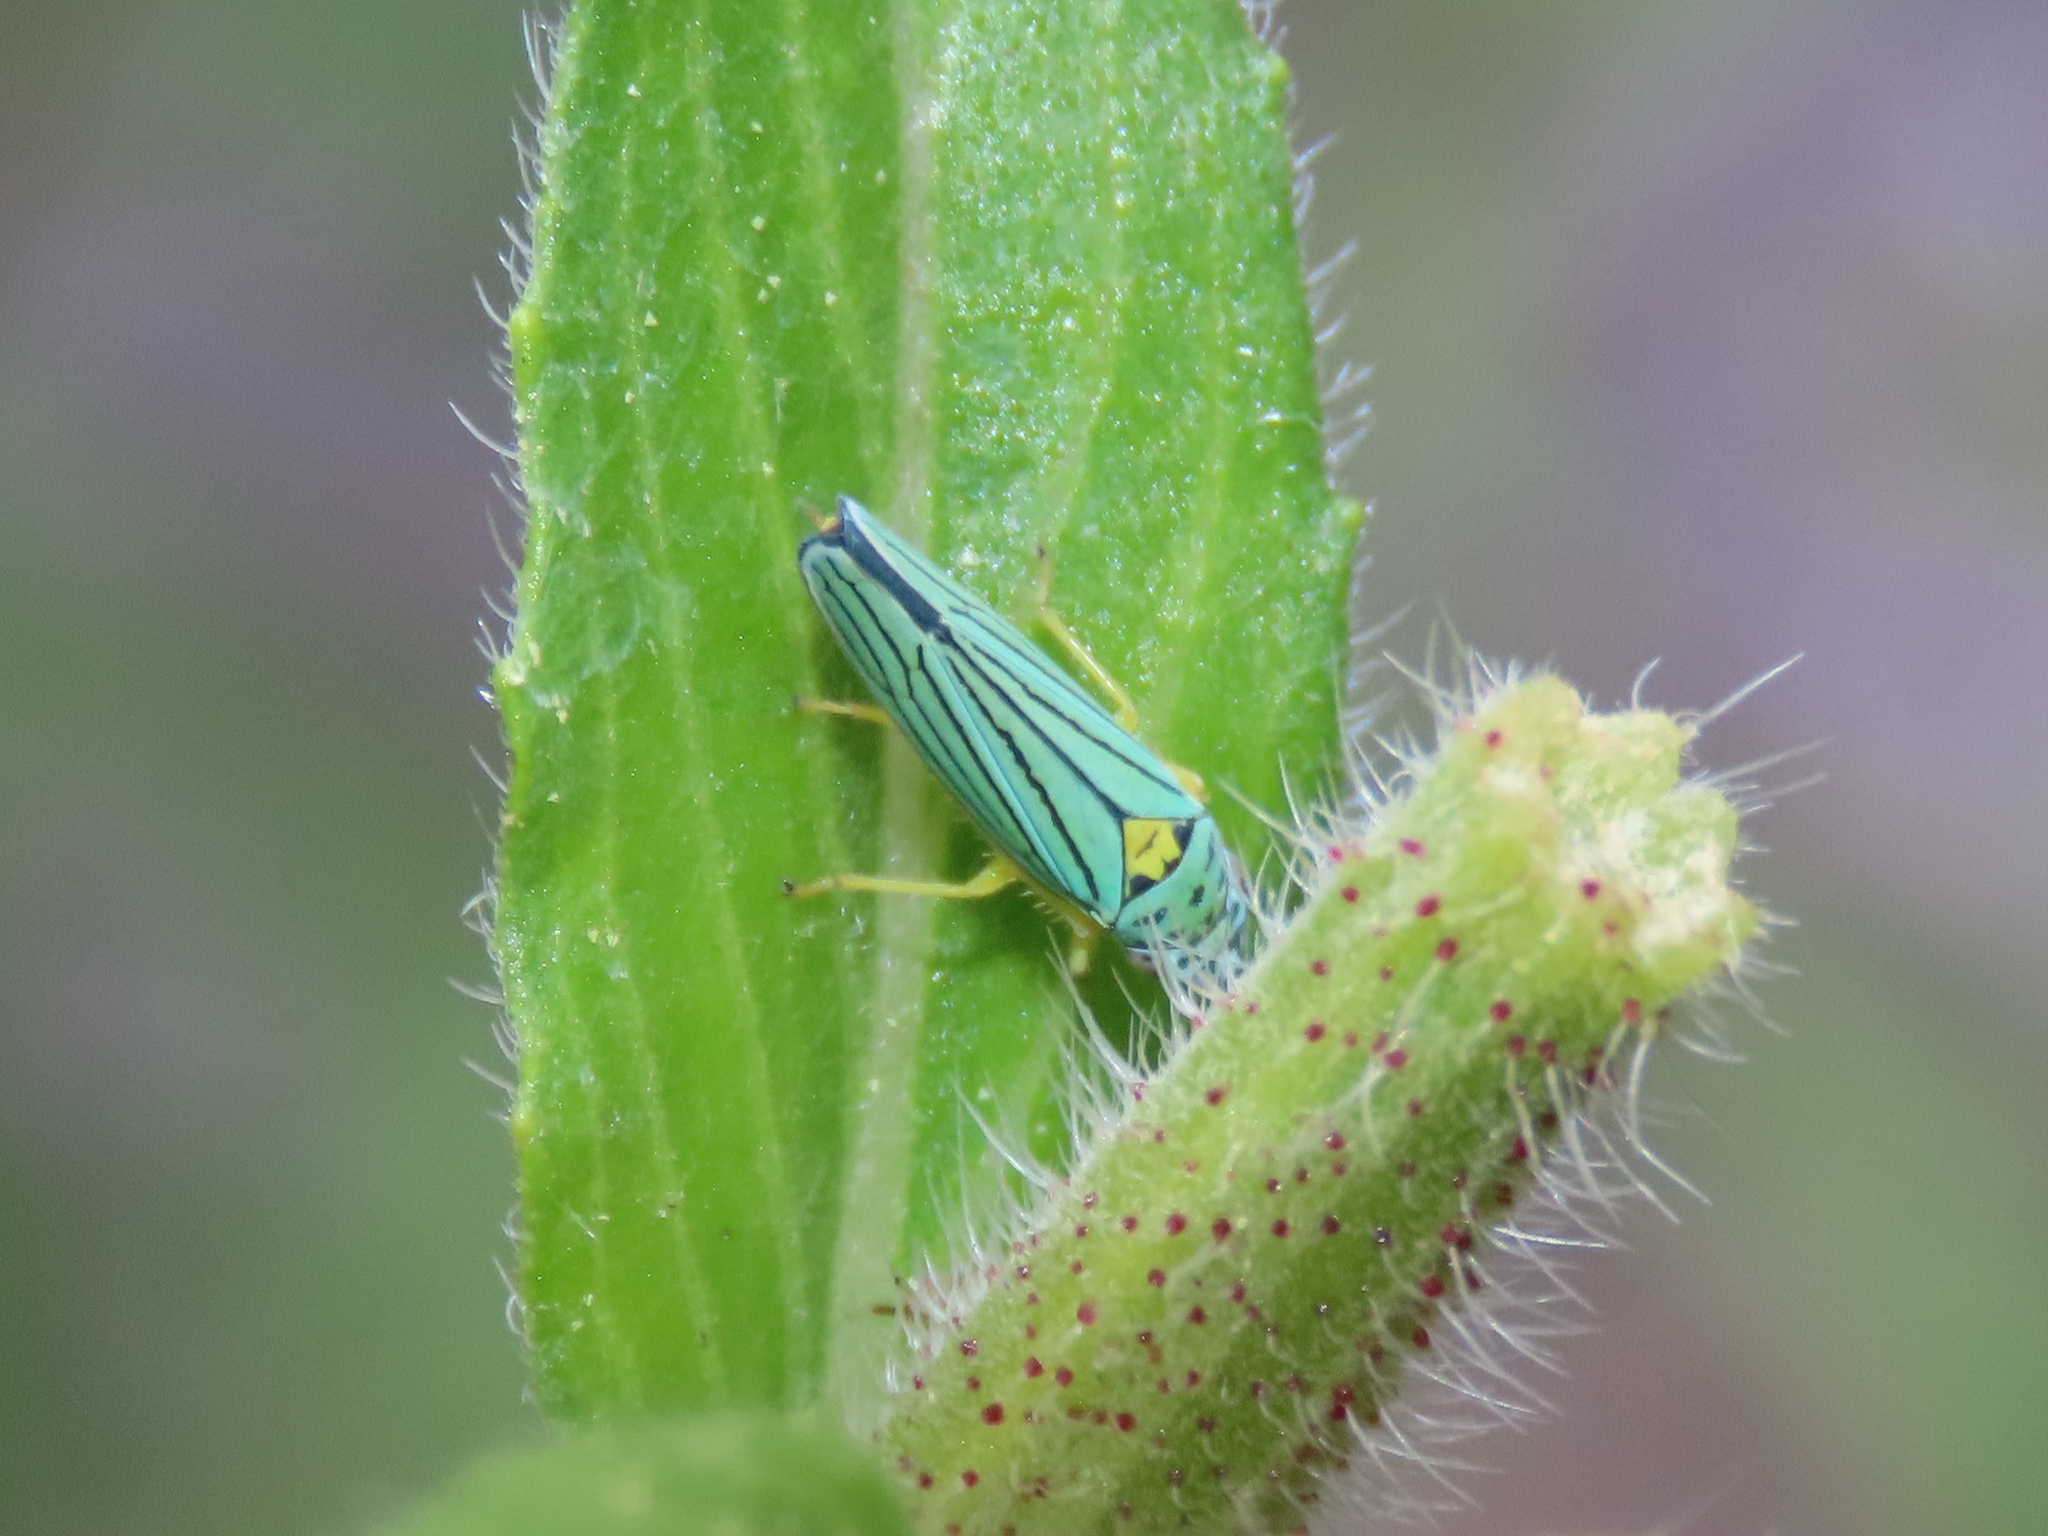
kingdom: Animalia
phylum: Arthropoda
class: Insecta
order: Hemiptera
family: Cicadellidae
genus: Graphocephala
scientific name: Graphocephala atropunctata
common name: Blue-green sharpshooter
